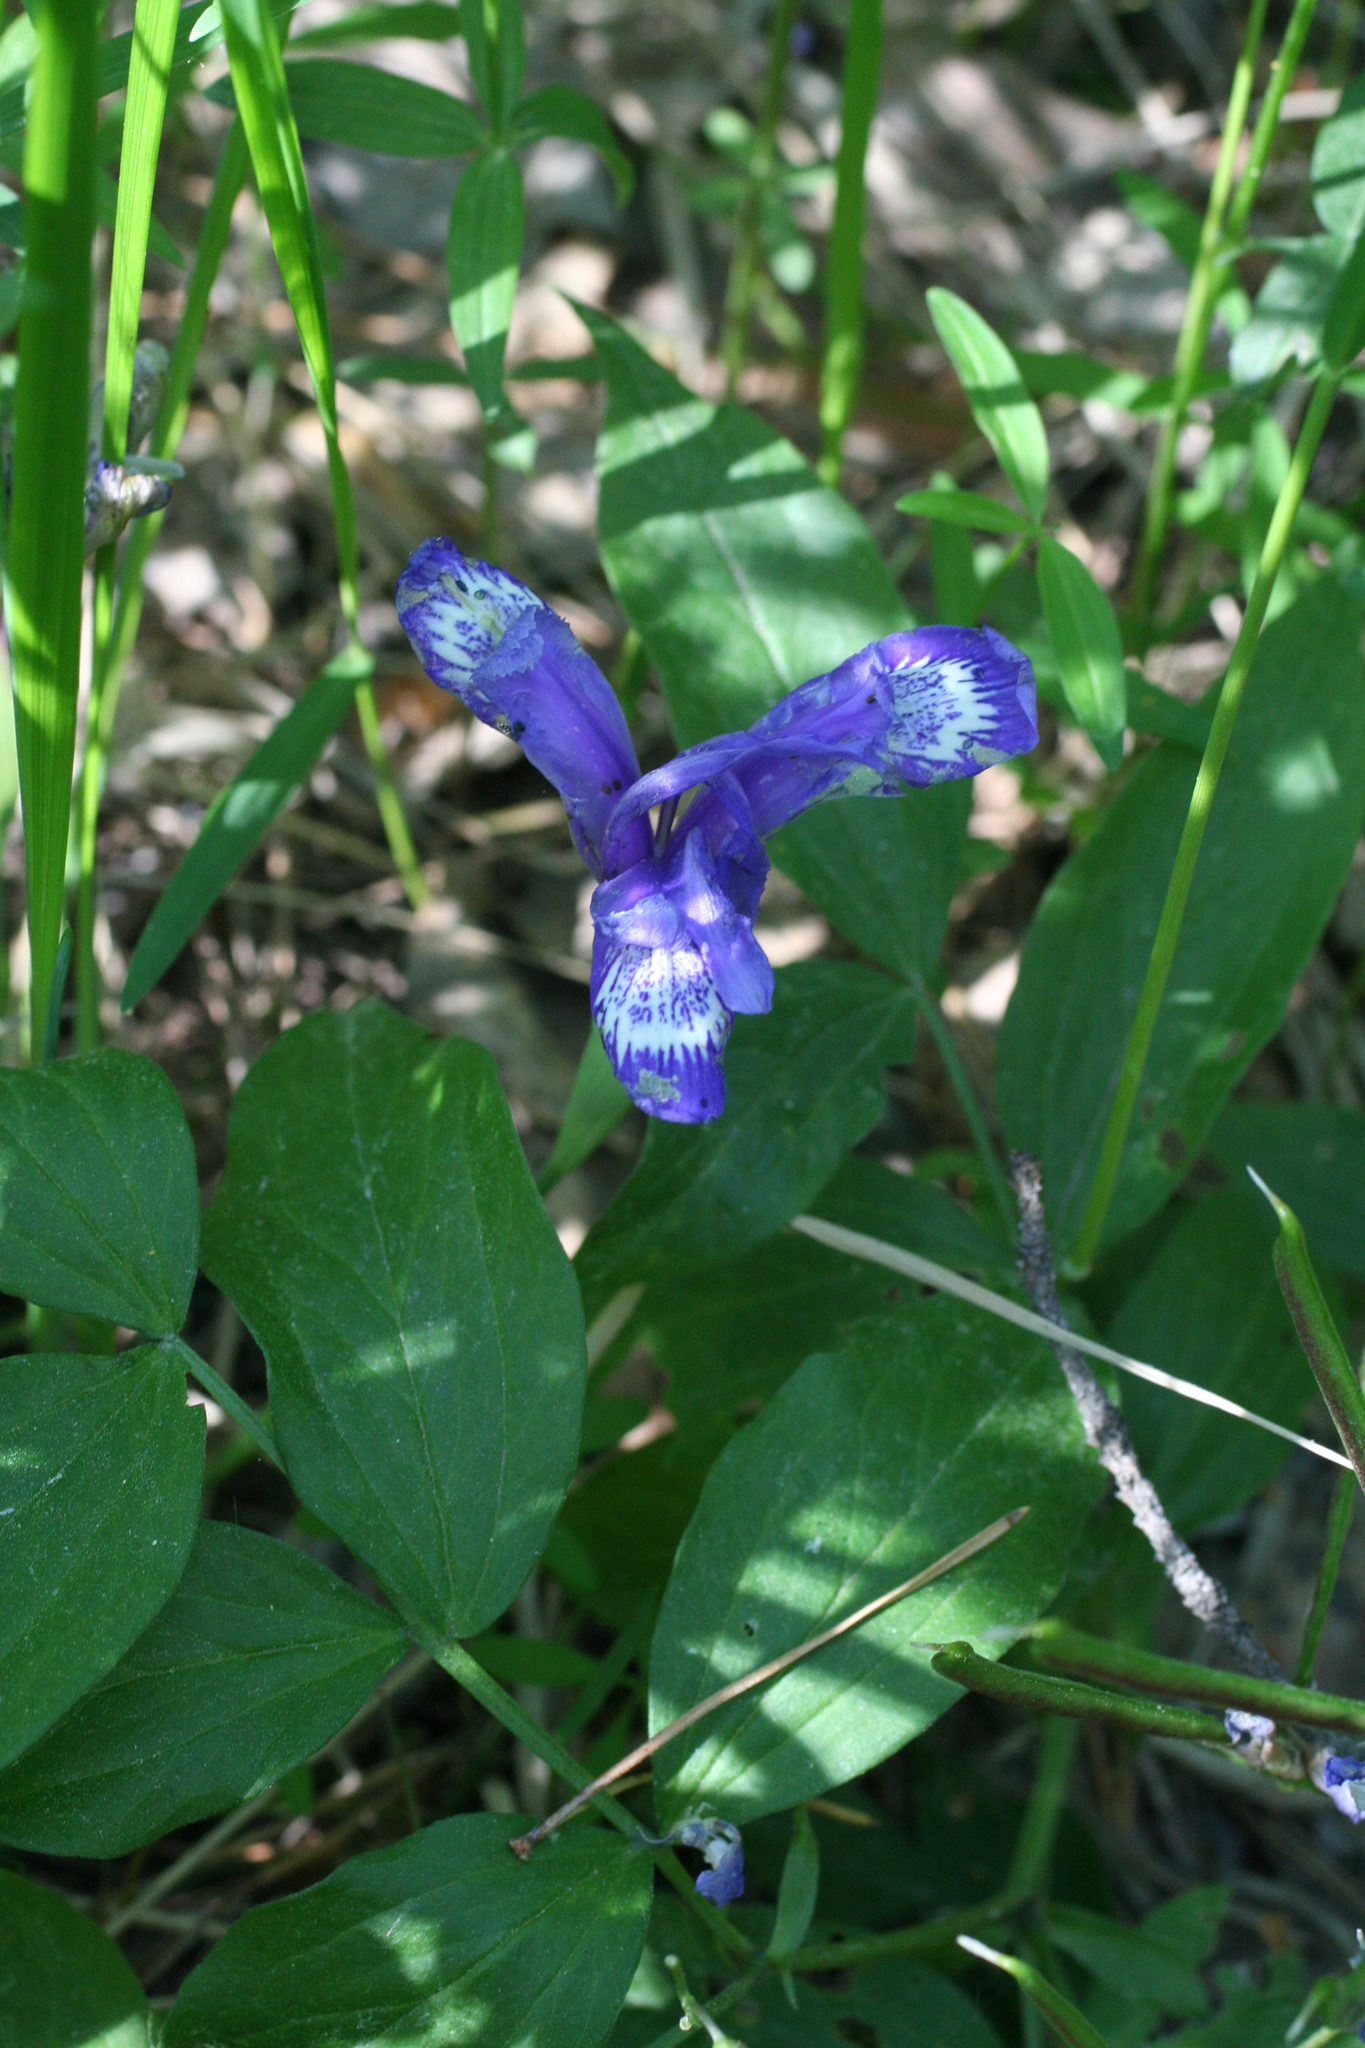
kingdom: Plantae
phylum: Tracheophyta
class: Liliopsida
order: Asparagales
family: Iridaceae
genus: Iris
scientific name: Iris ruthenica
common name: Purple-bract iris
